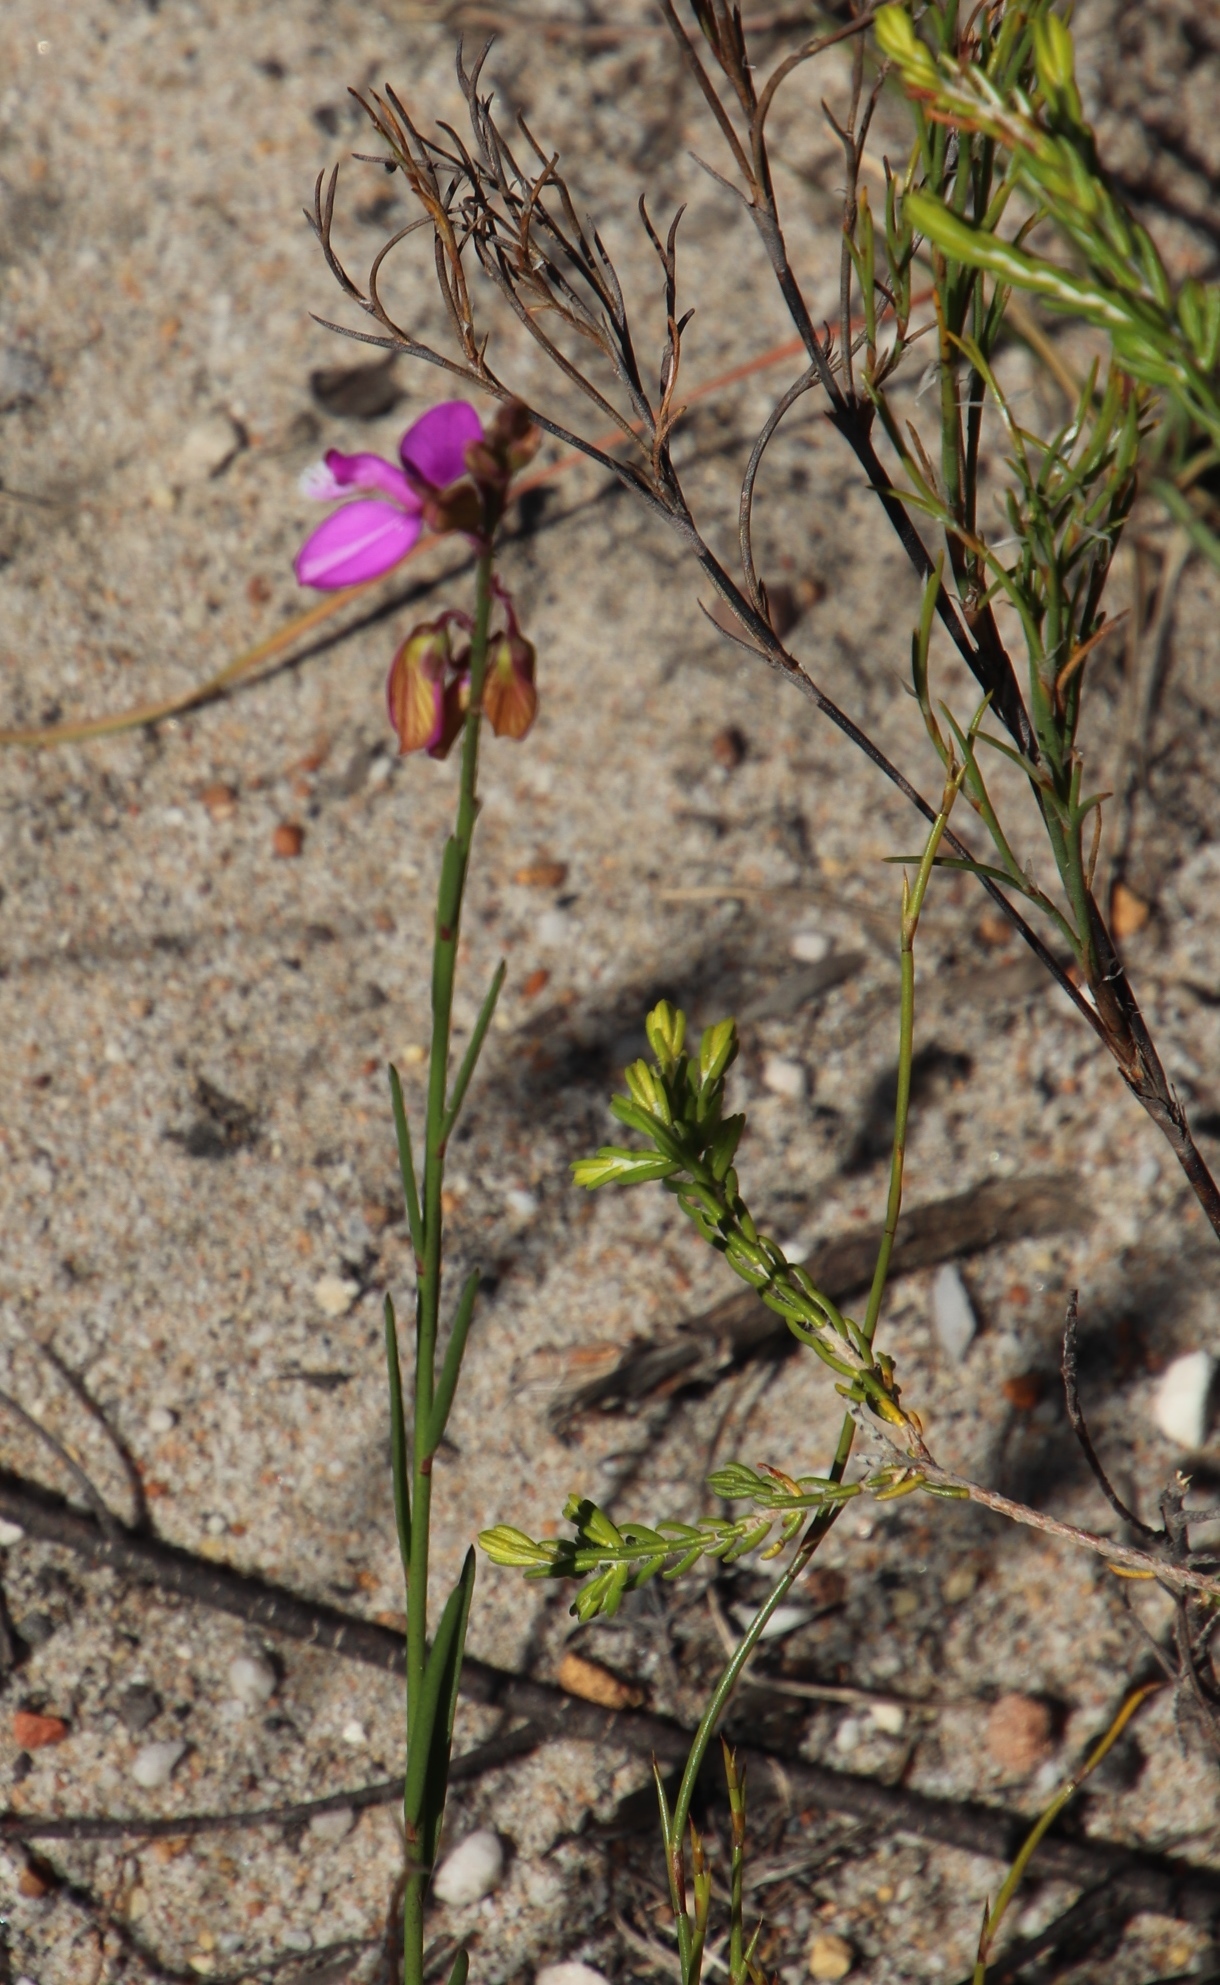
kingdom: Plantae
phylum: Tracheophyta
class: Magnoliopsida
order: Fabales
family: Polygalaceae
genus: Polygala
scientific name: Polygala garcini
